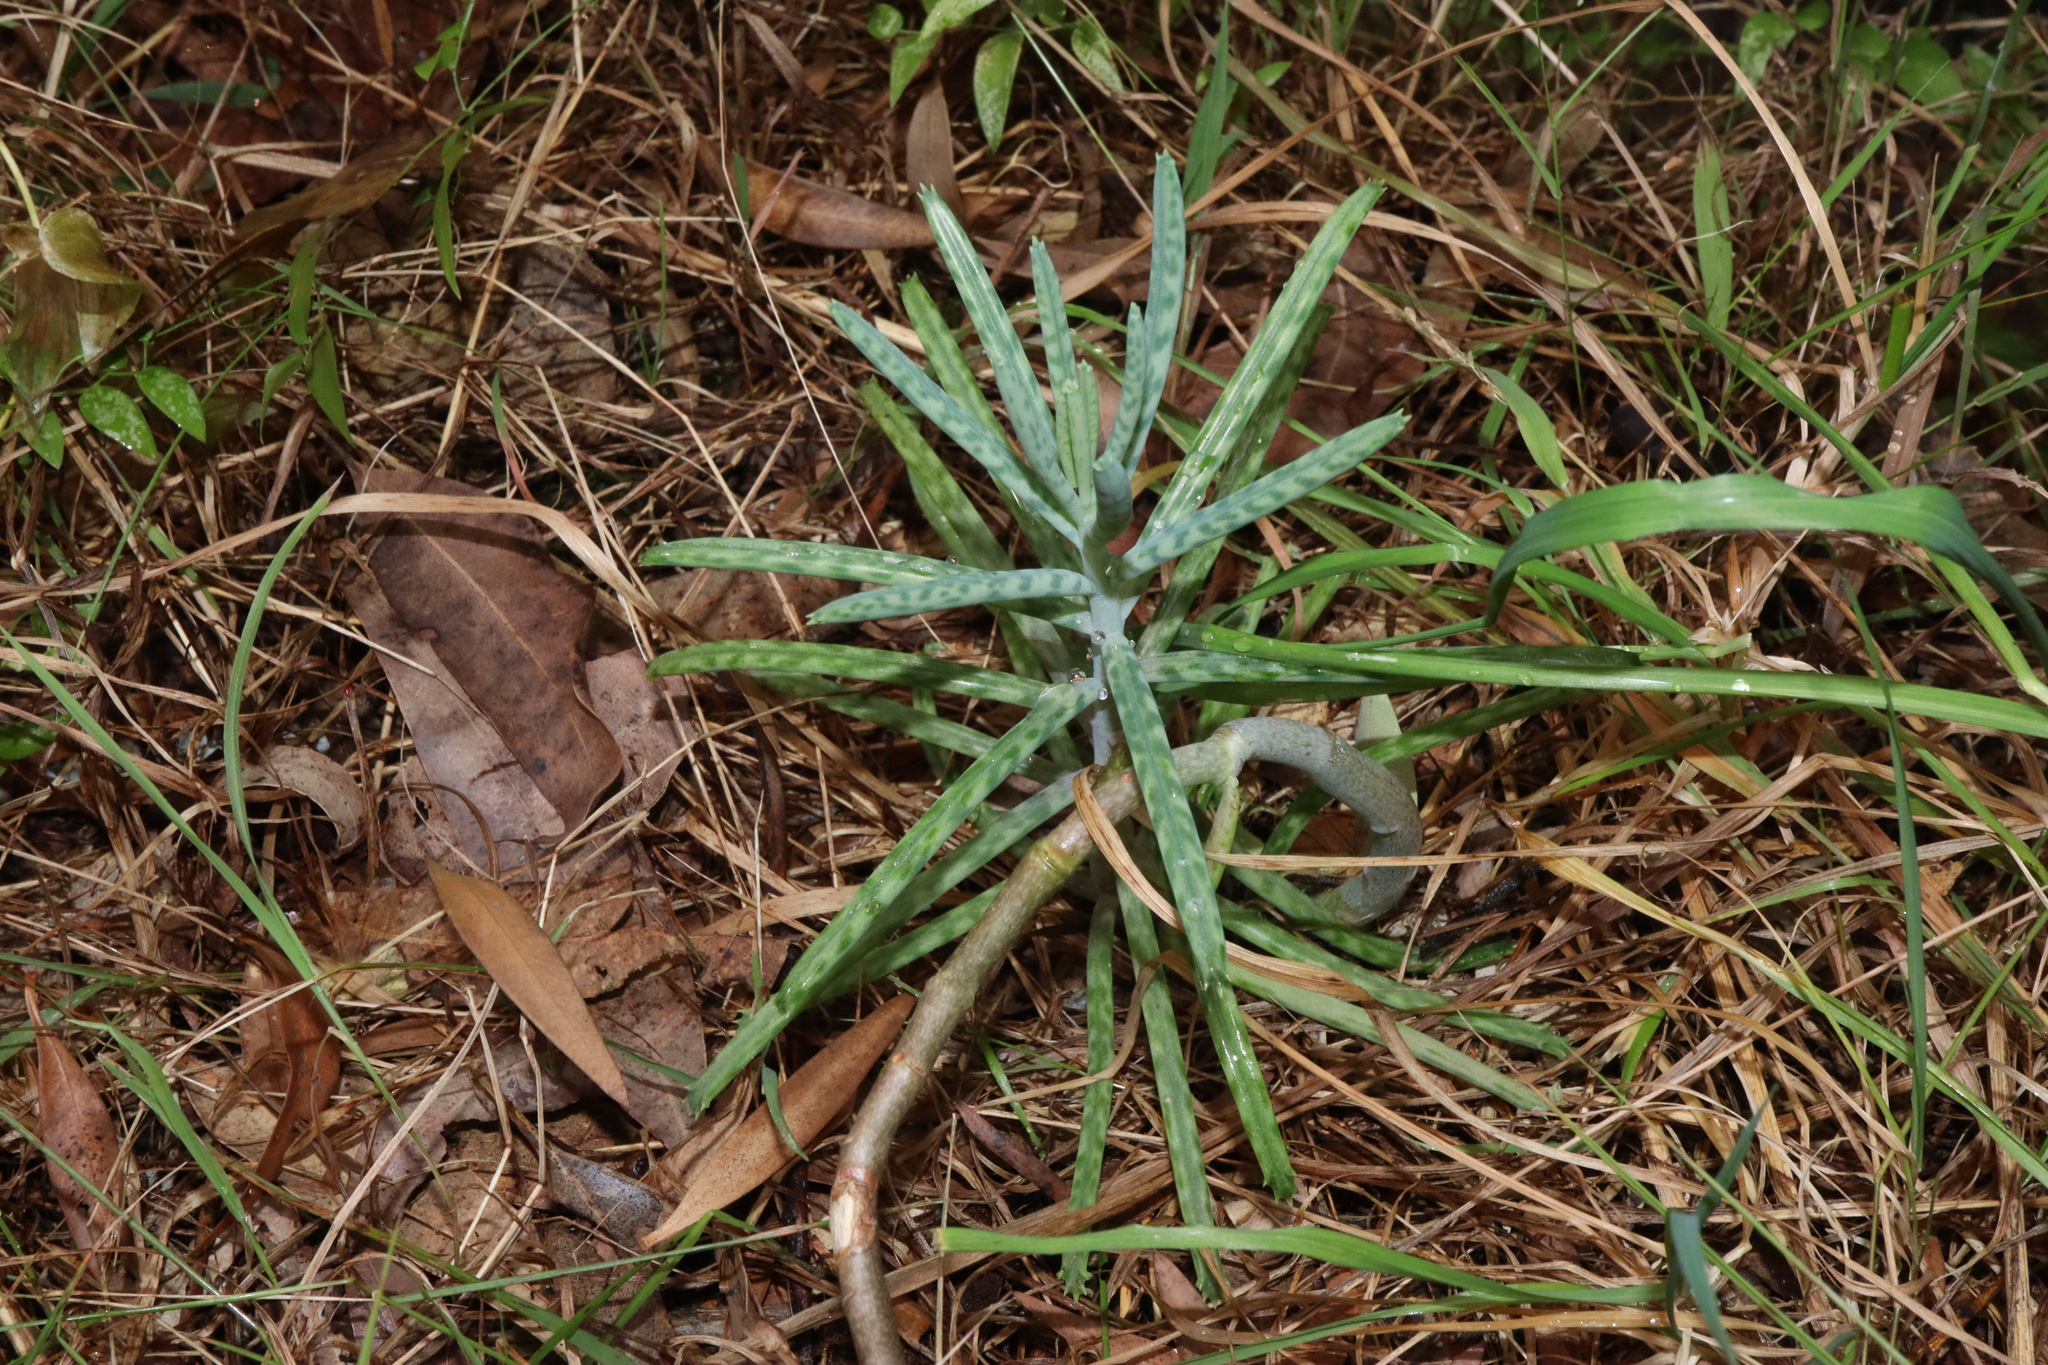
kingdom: Plantae
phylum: Tracheophyta
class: Magnoliopsida
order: Saxifragales
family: Crassulaceae
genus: Kalanchoe
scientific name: Kalanchoe delagoensis
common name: Chandelier plant
